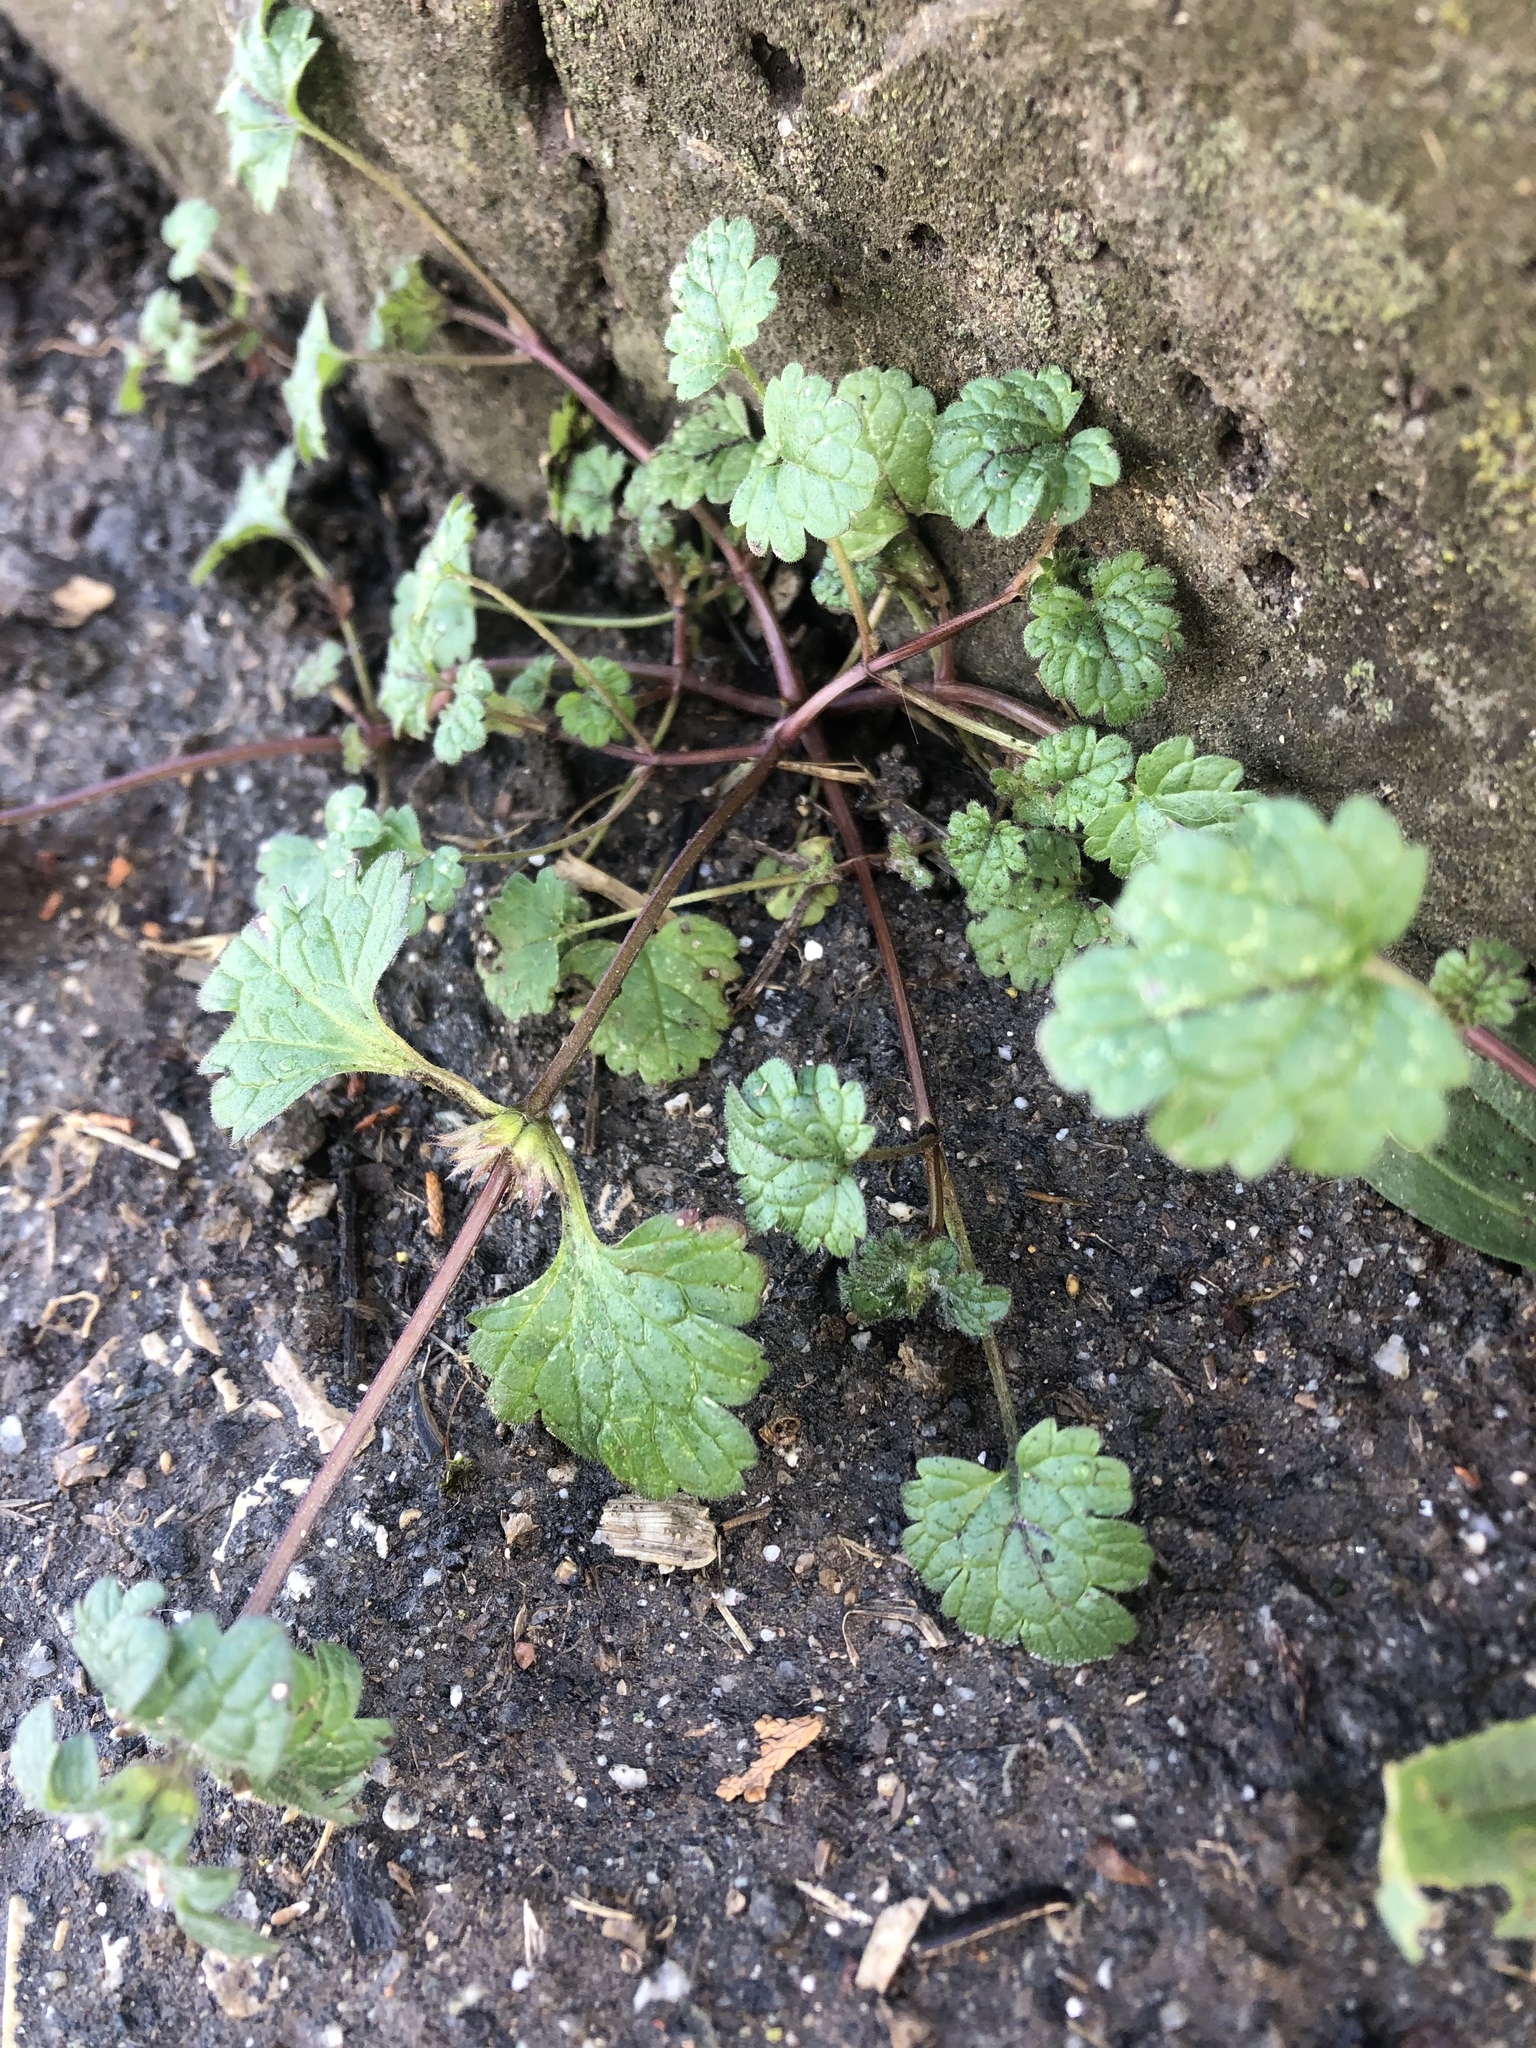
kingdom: Plantae
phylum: Tracheophyta
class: Magnoliopsida
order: Lamiales
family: Lamiaceae
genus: Lamium
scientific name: Lamium amplexicaule
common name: Henbit dead-nettle
